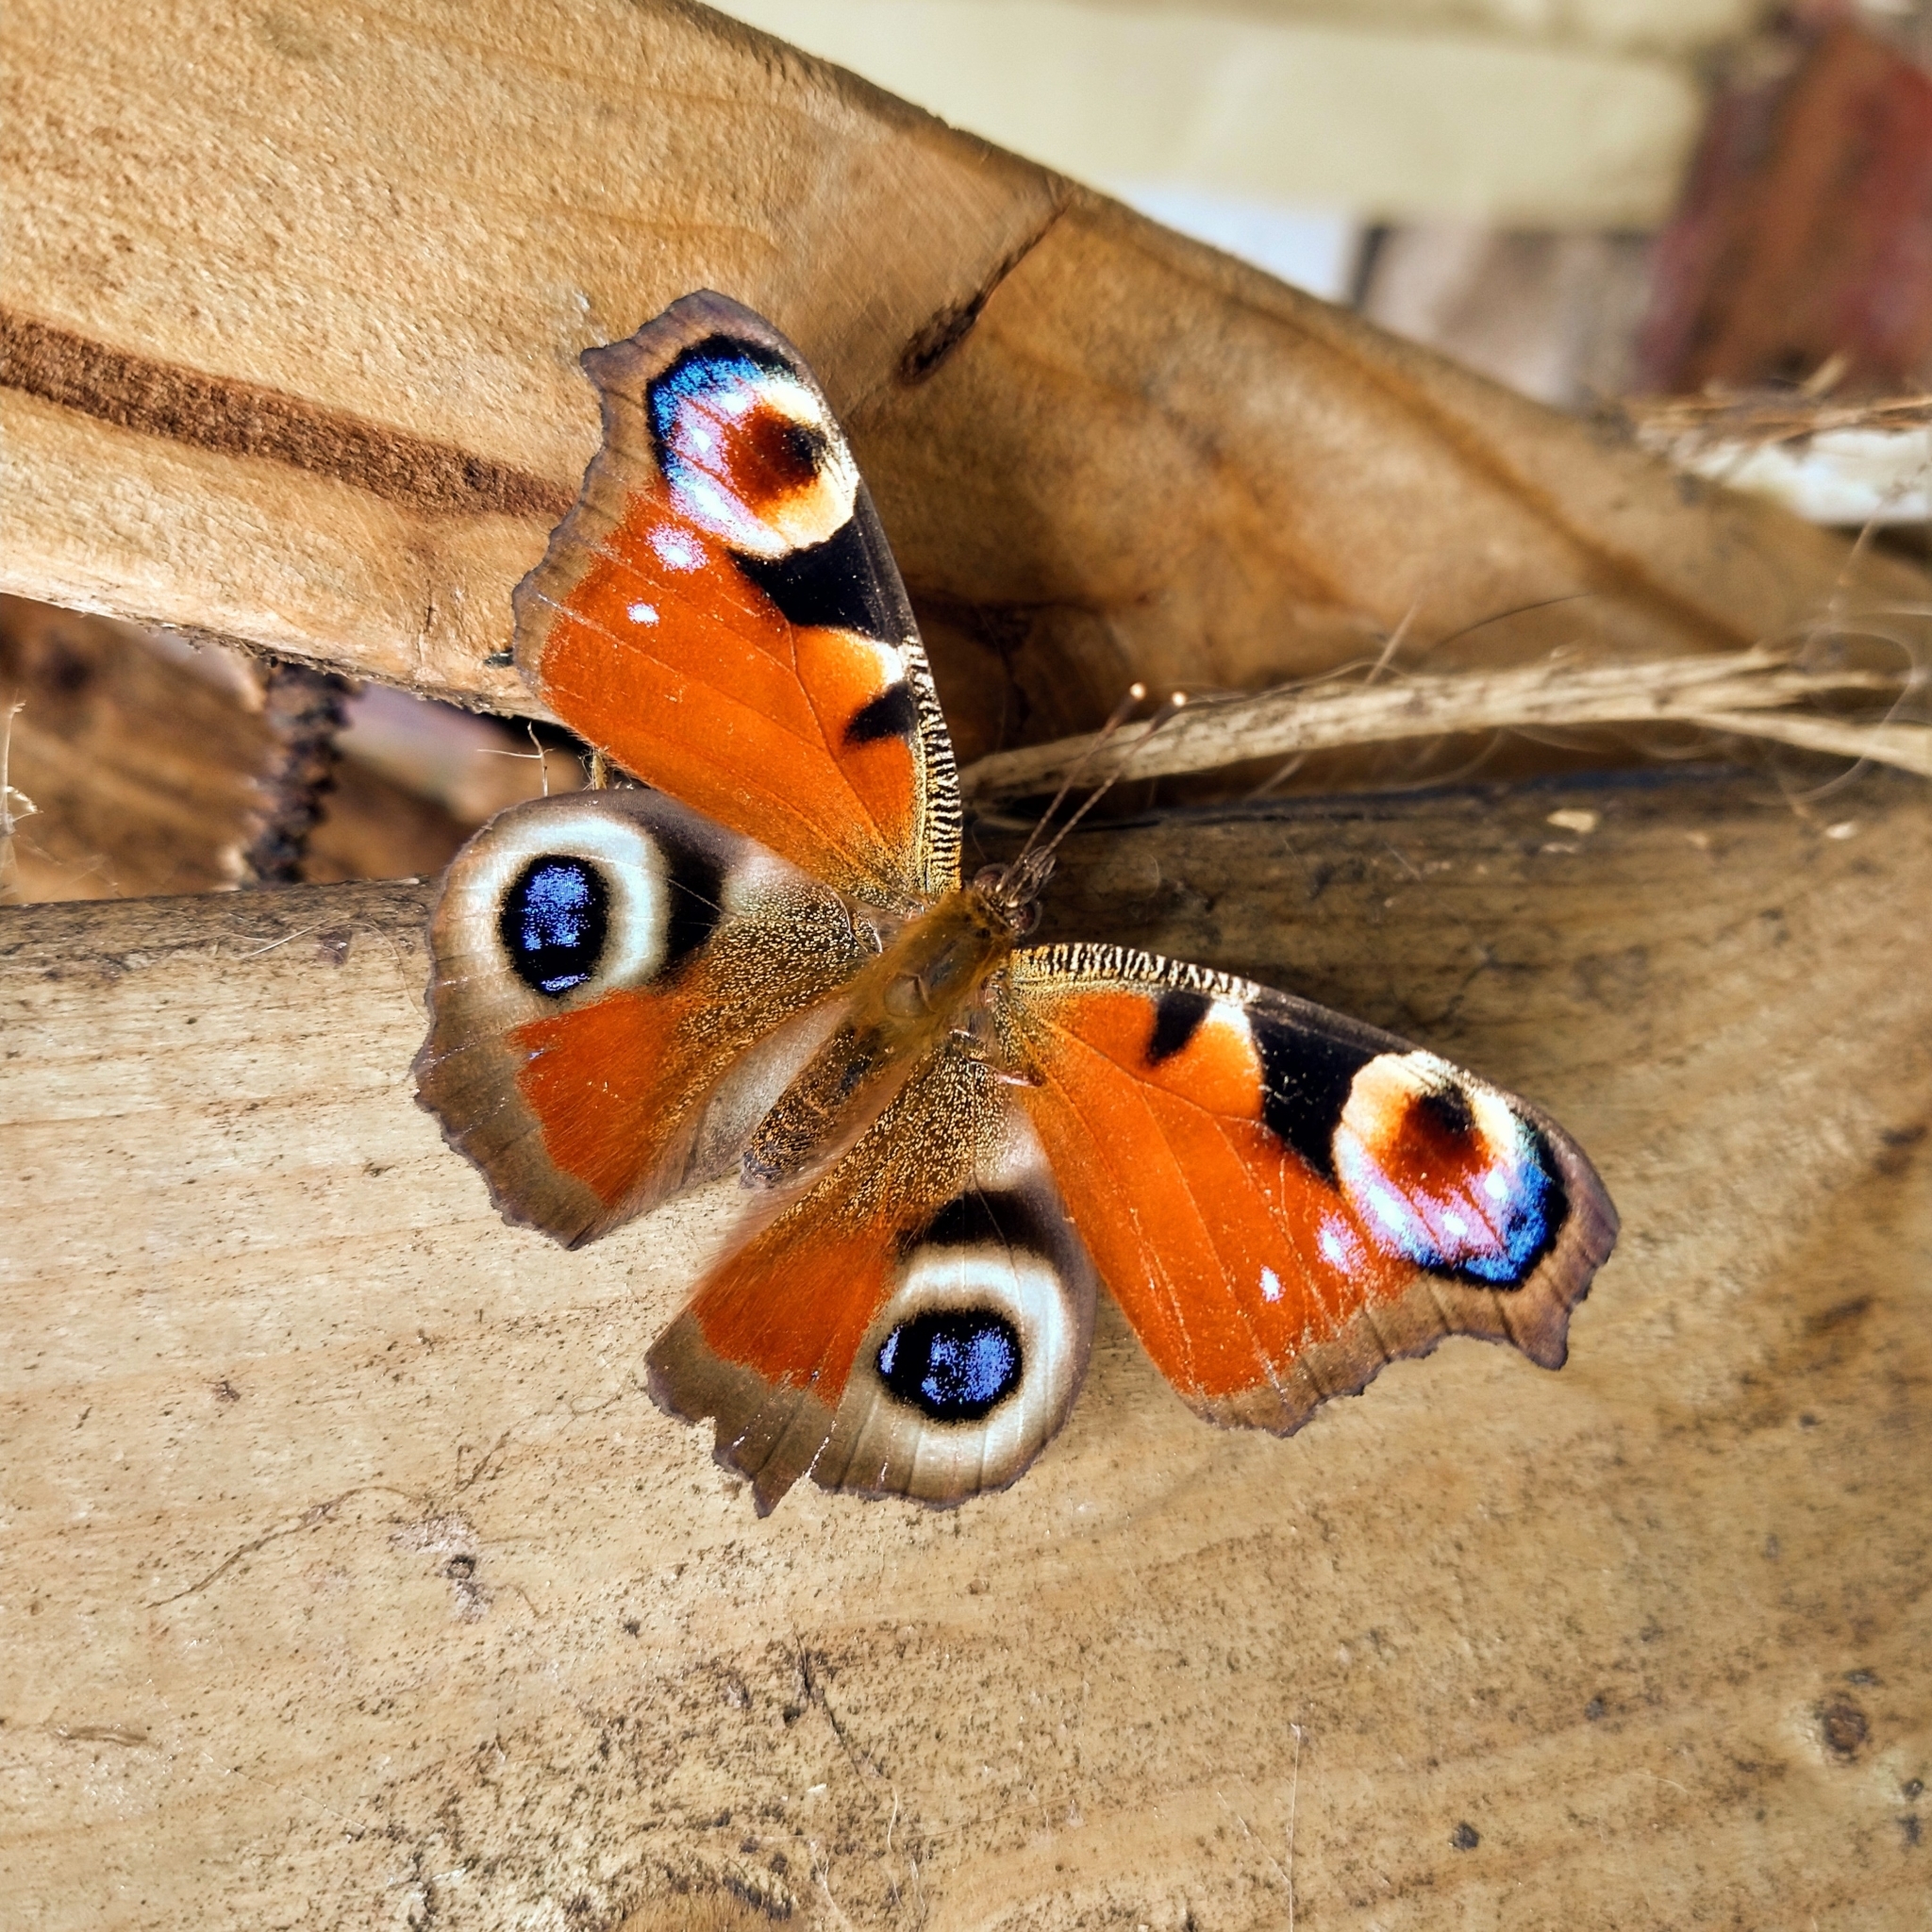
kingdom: Animalia
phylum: Arthropoda
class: Insecta
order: Lepidoptera
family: Nymphalidae
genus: Aglais
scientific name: Aglais io
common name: Peacock
